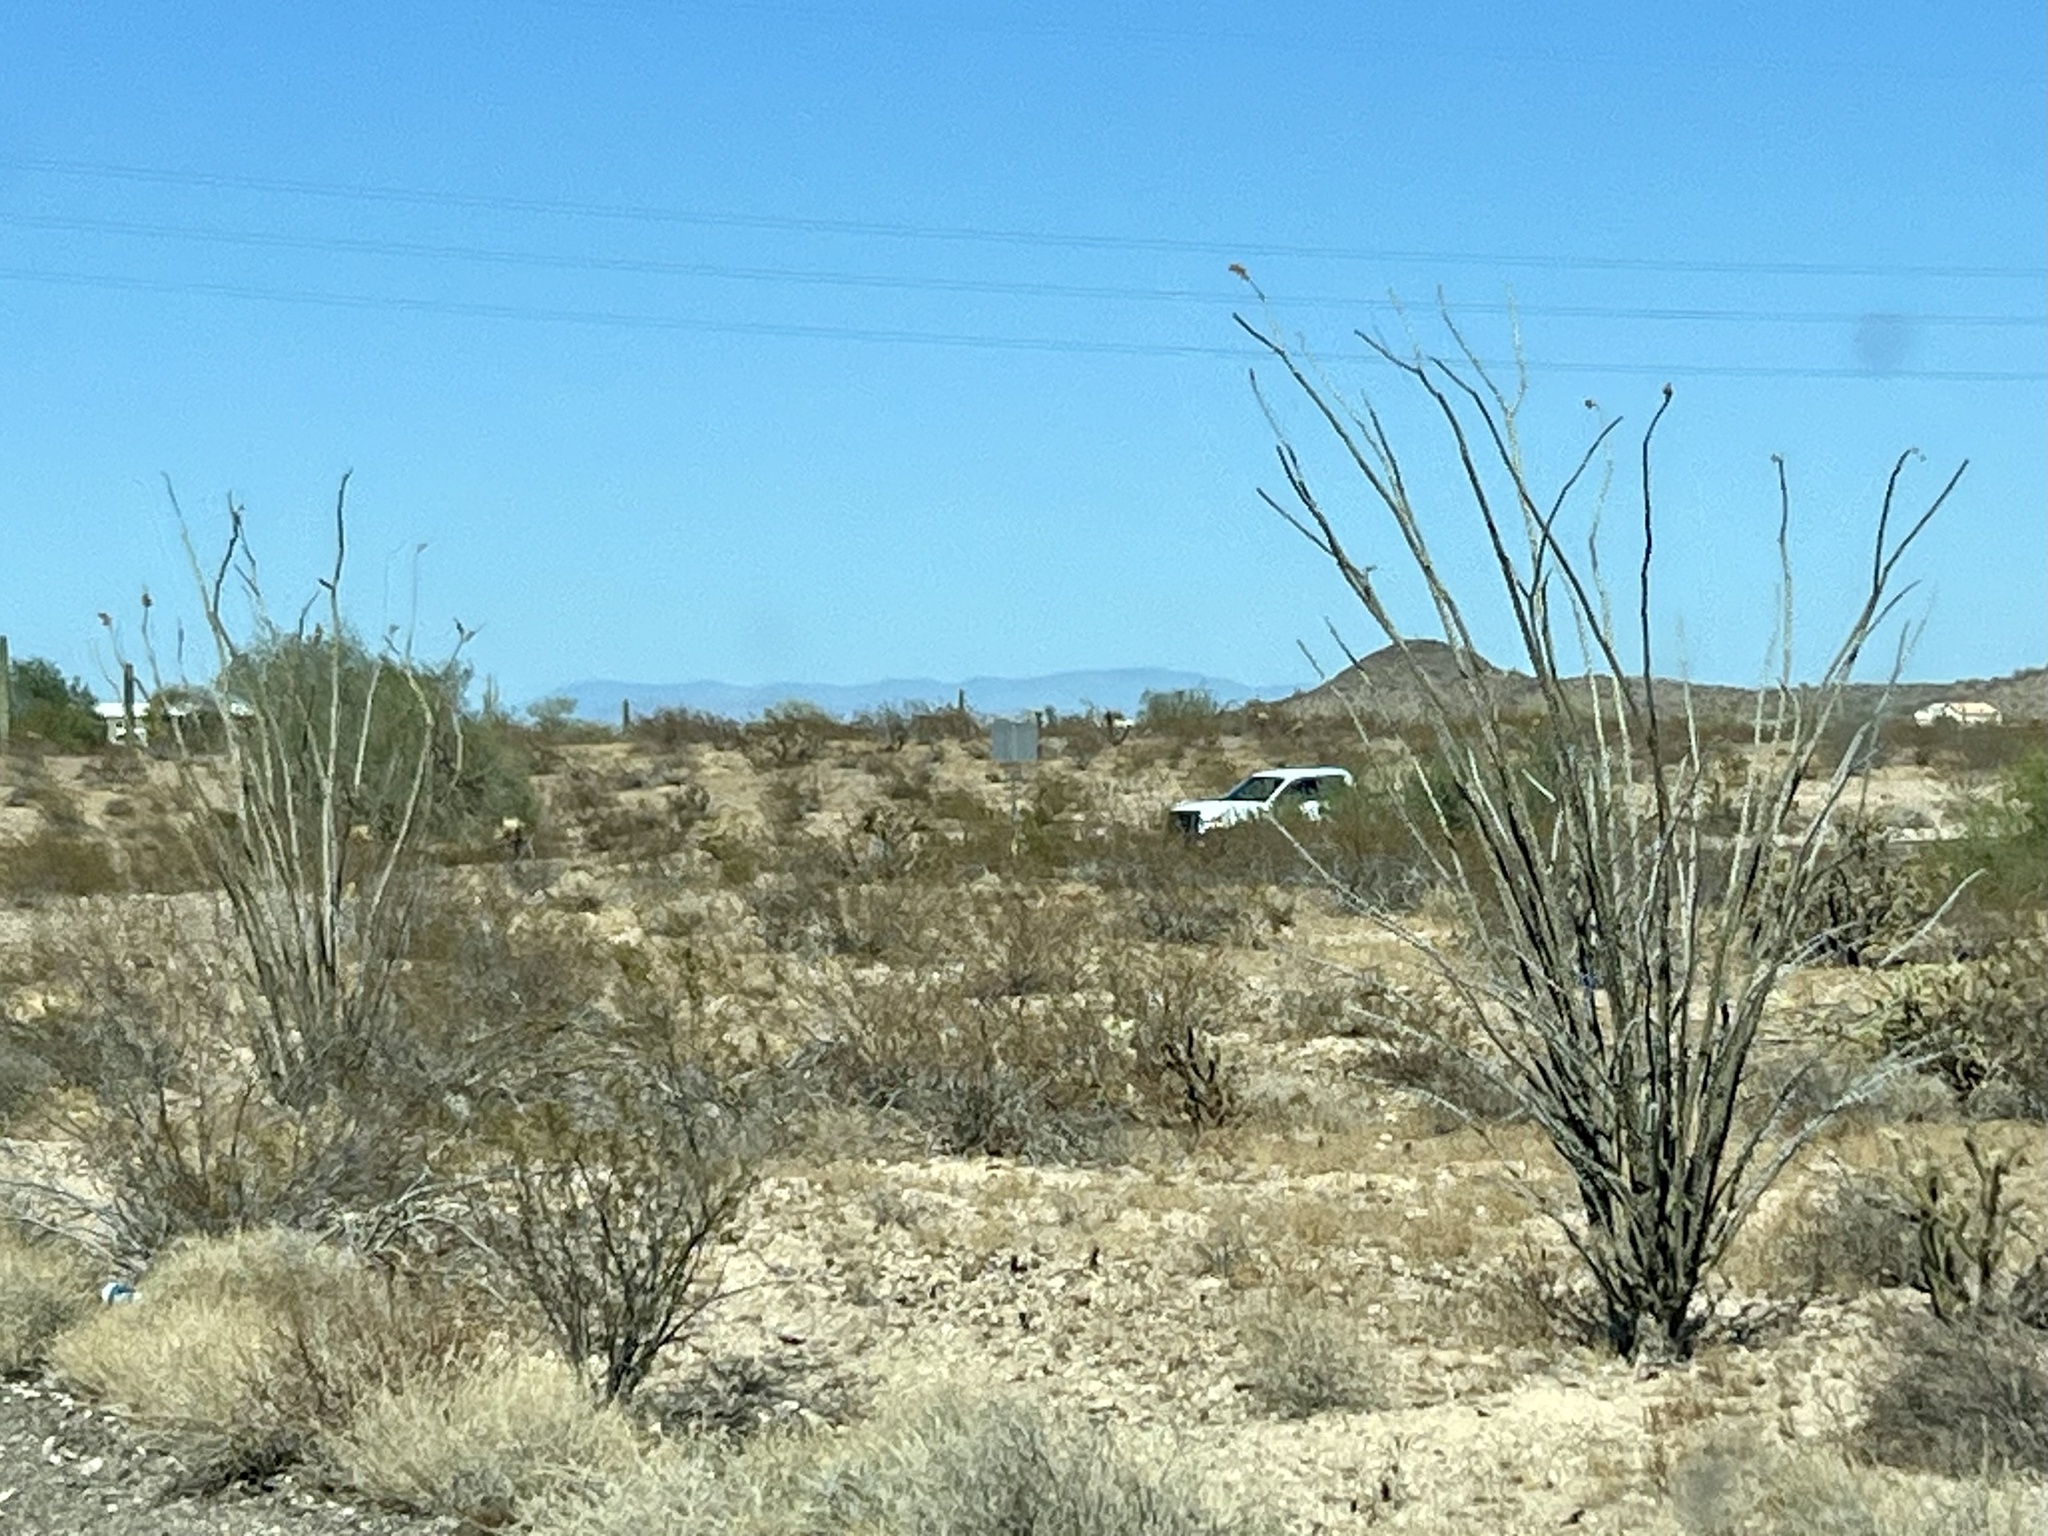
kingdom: Plantae
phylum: Tracheophyta
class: Magnoliopsida
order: Ericales
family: Fouquieriaceae
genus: Fouquieria
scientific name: Fouquieria splendens
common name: Vine-cactus
